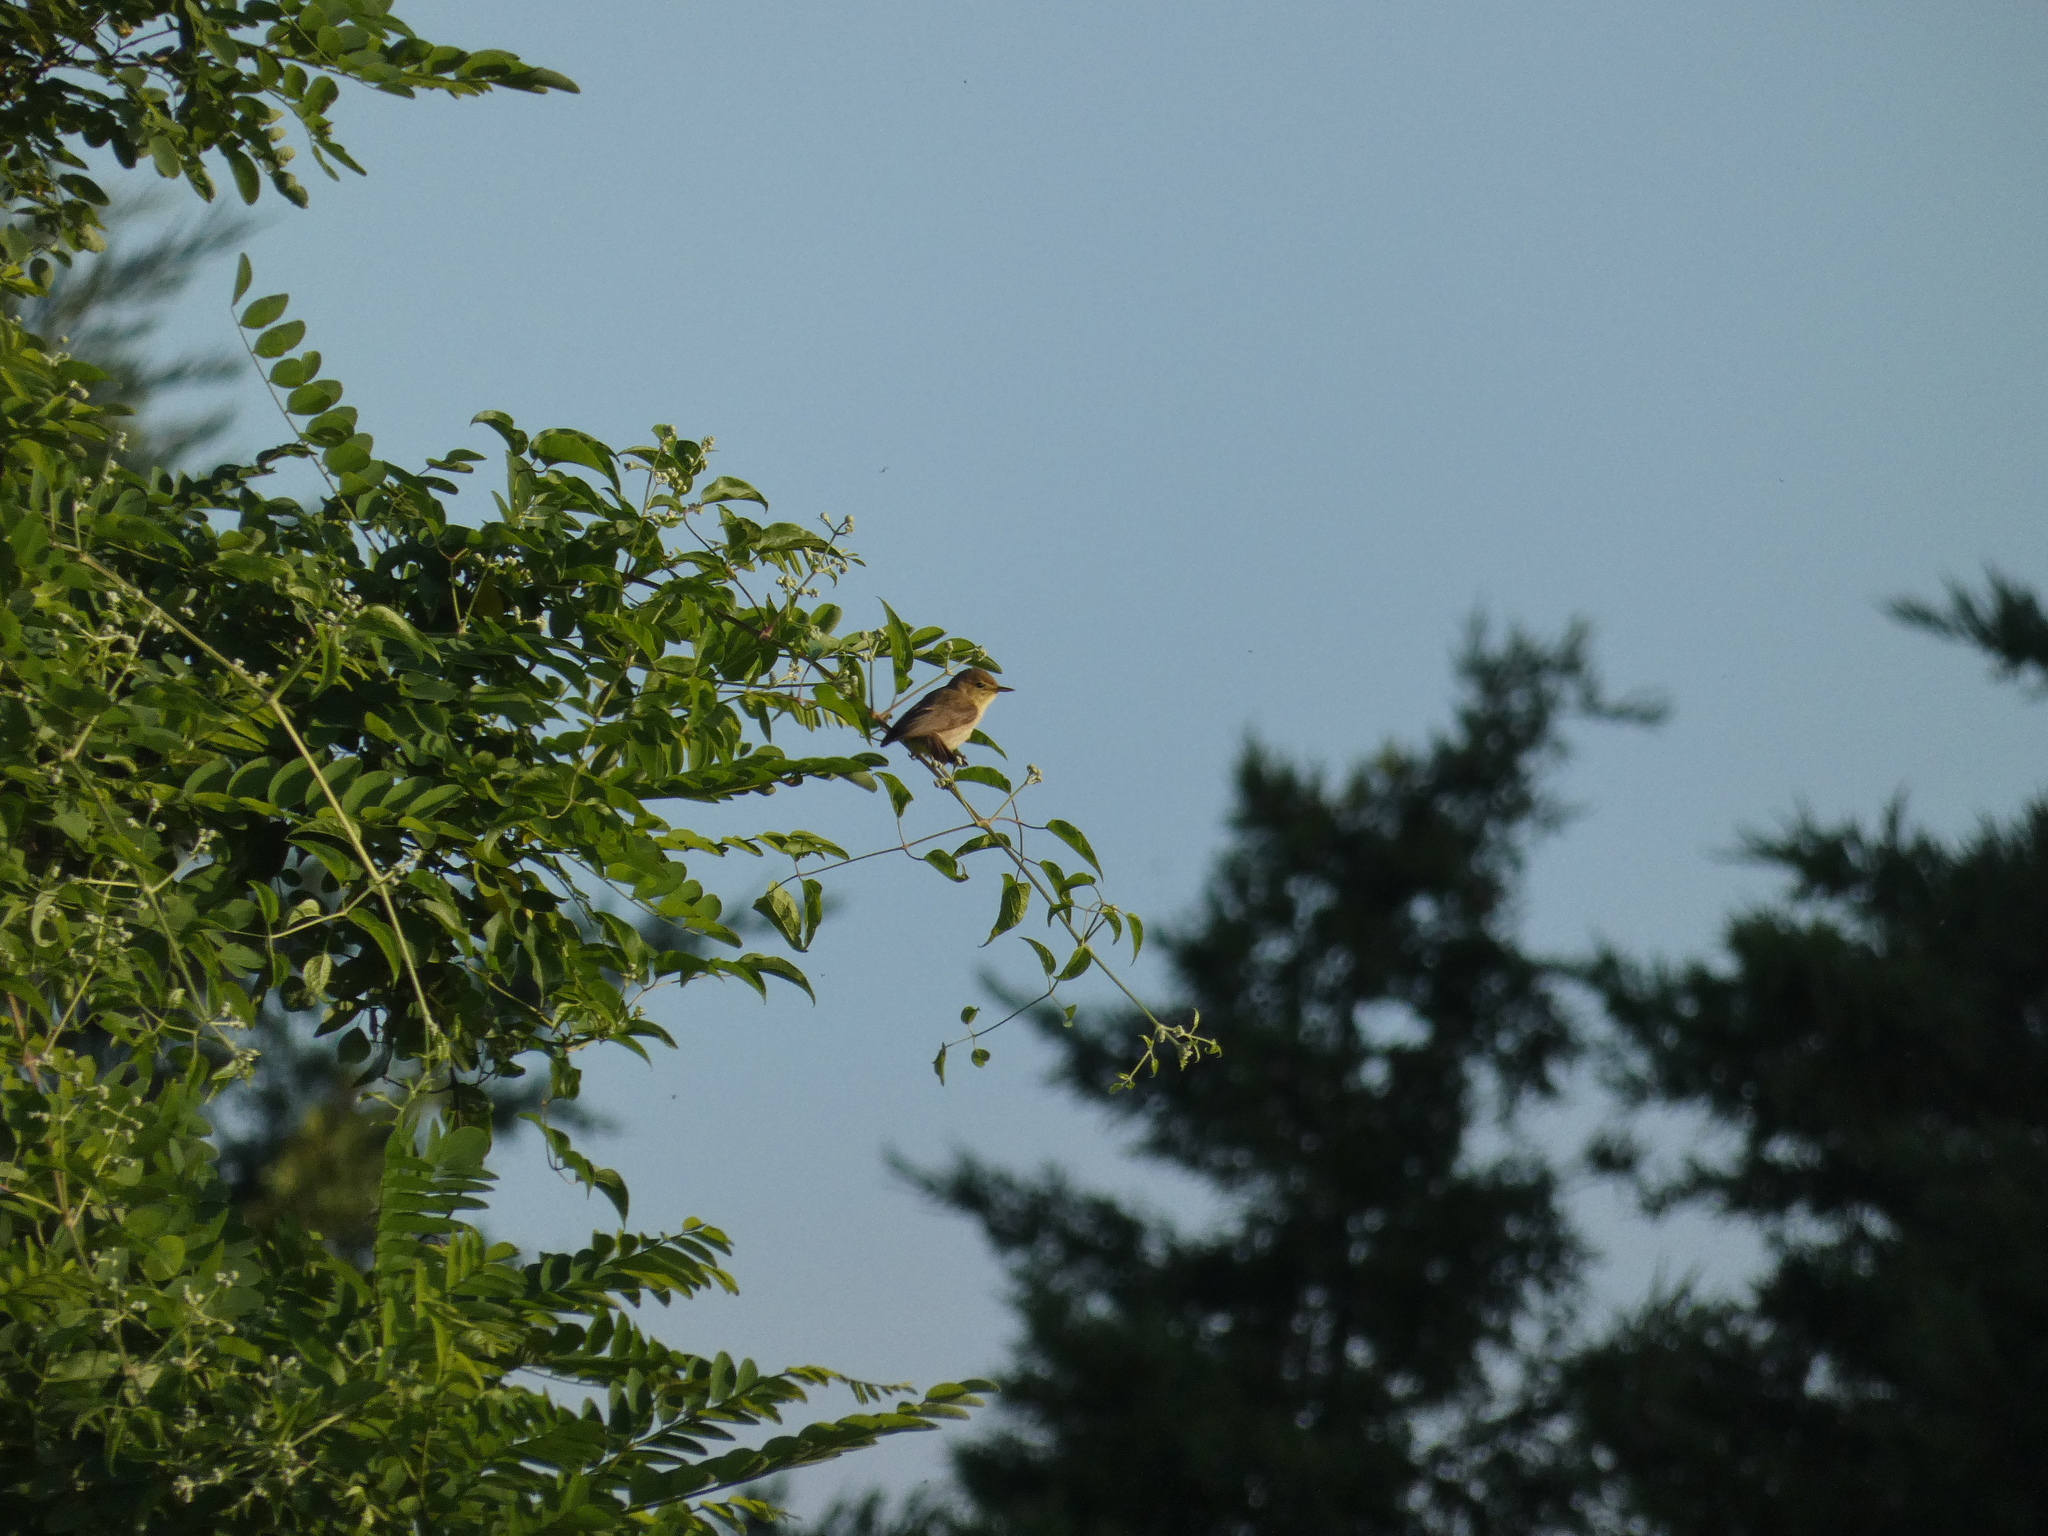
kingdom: Animalia
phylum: Chordata
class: Aves
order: Passeriformes
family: Acrocephalidae
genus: Hippolais
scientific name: Hippolais polyglotta
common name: Melodious warbler
